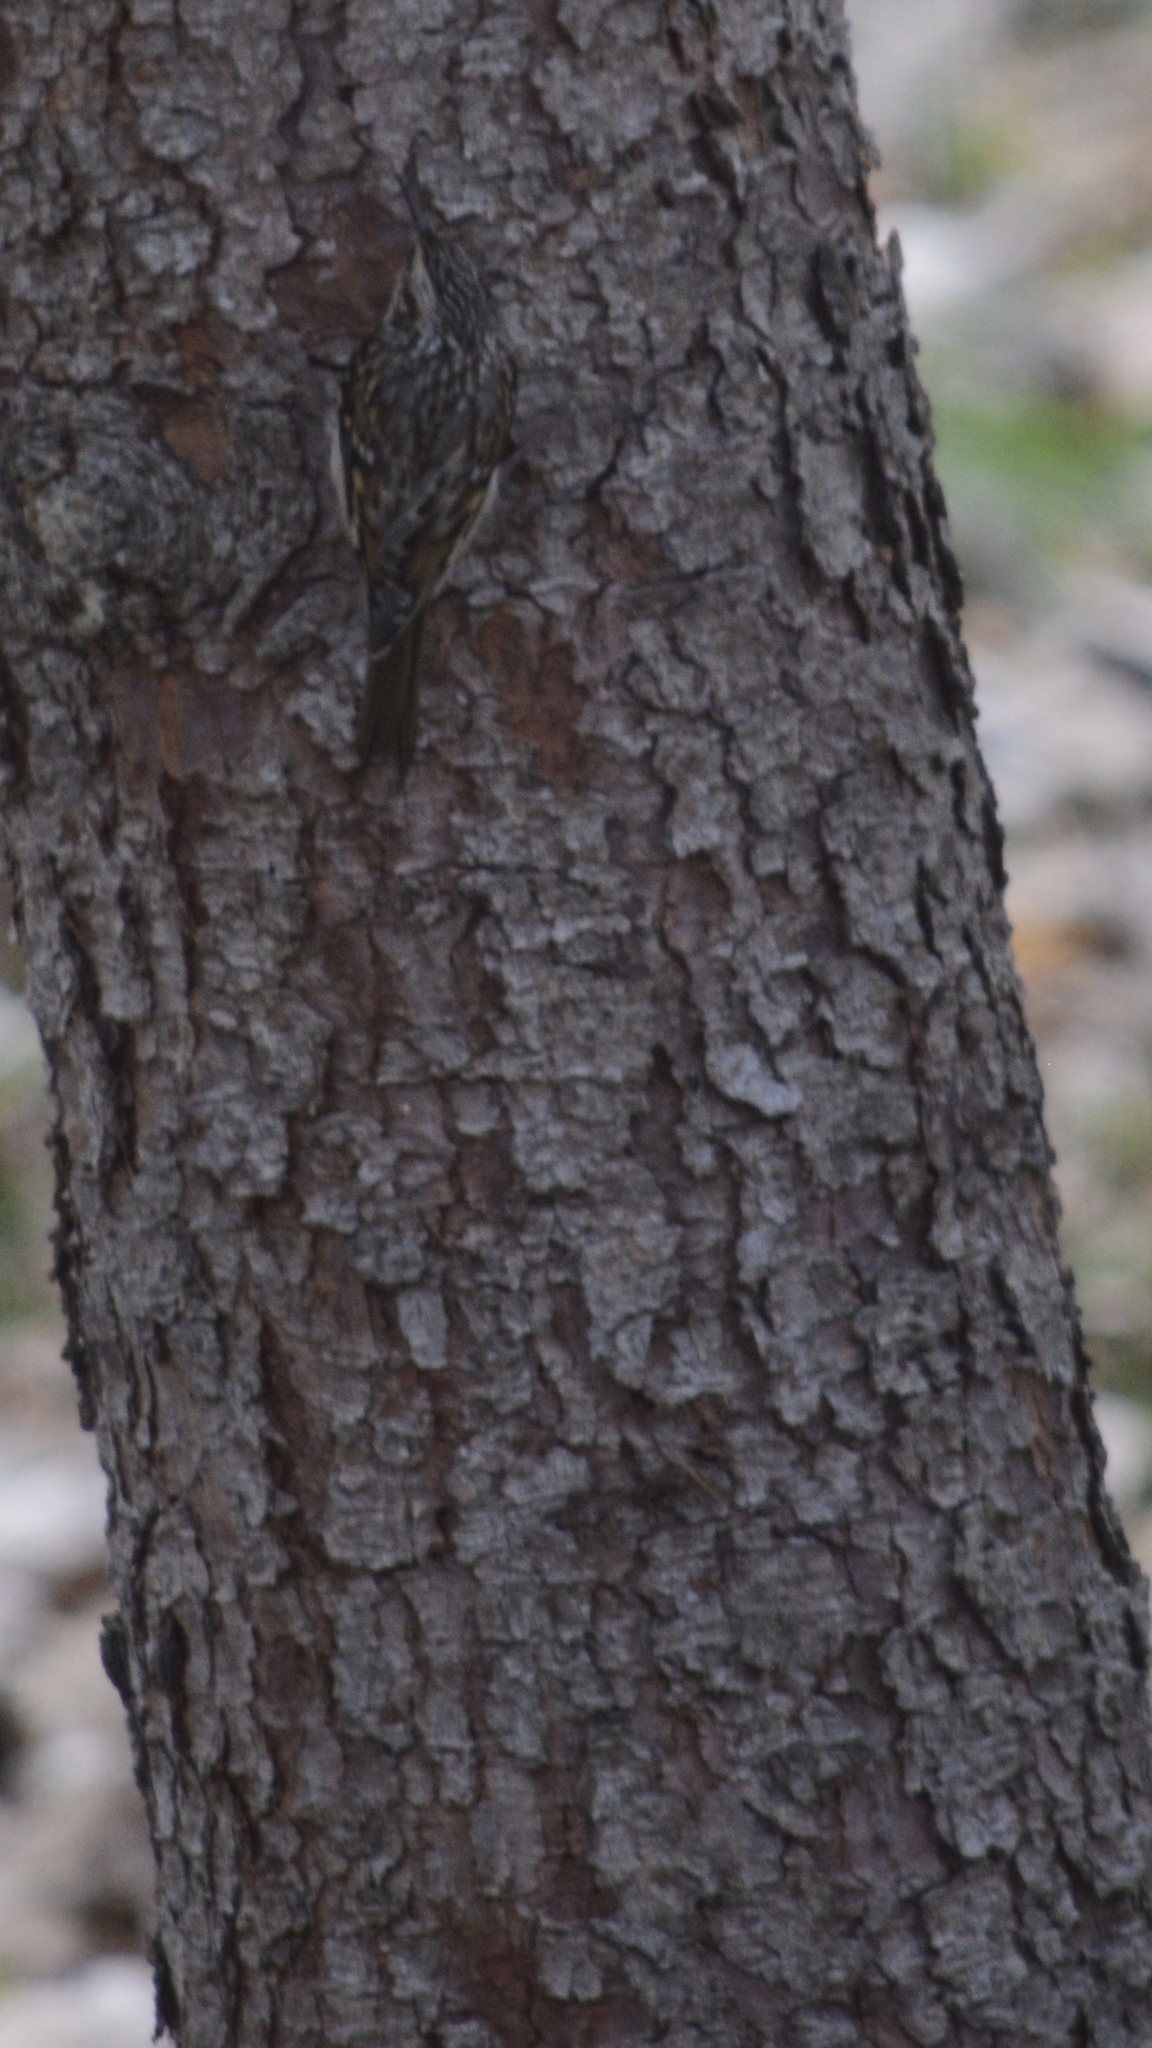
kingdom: Animalia
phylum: Chordata
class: Aves
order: Passeriformes
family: Certhiidae
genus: Certhia
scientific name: Certhia americana
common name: Brown creeper
